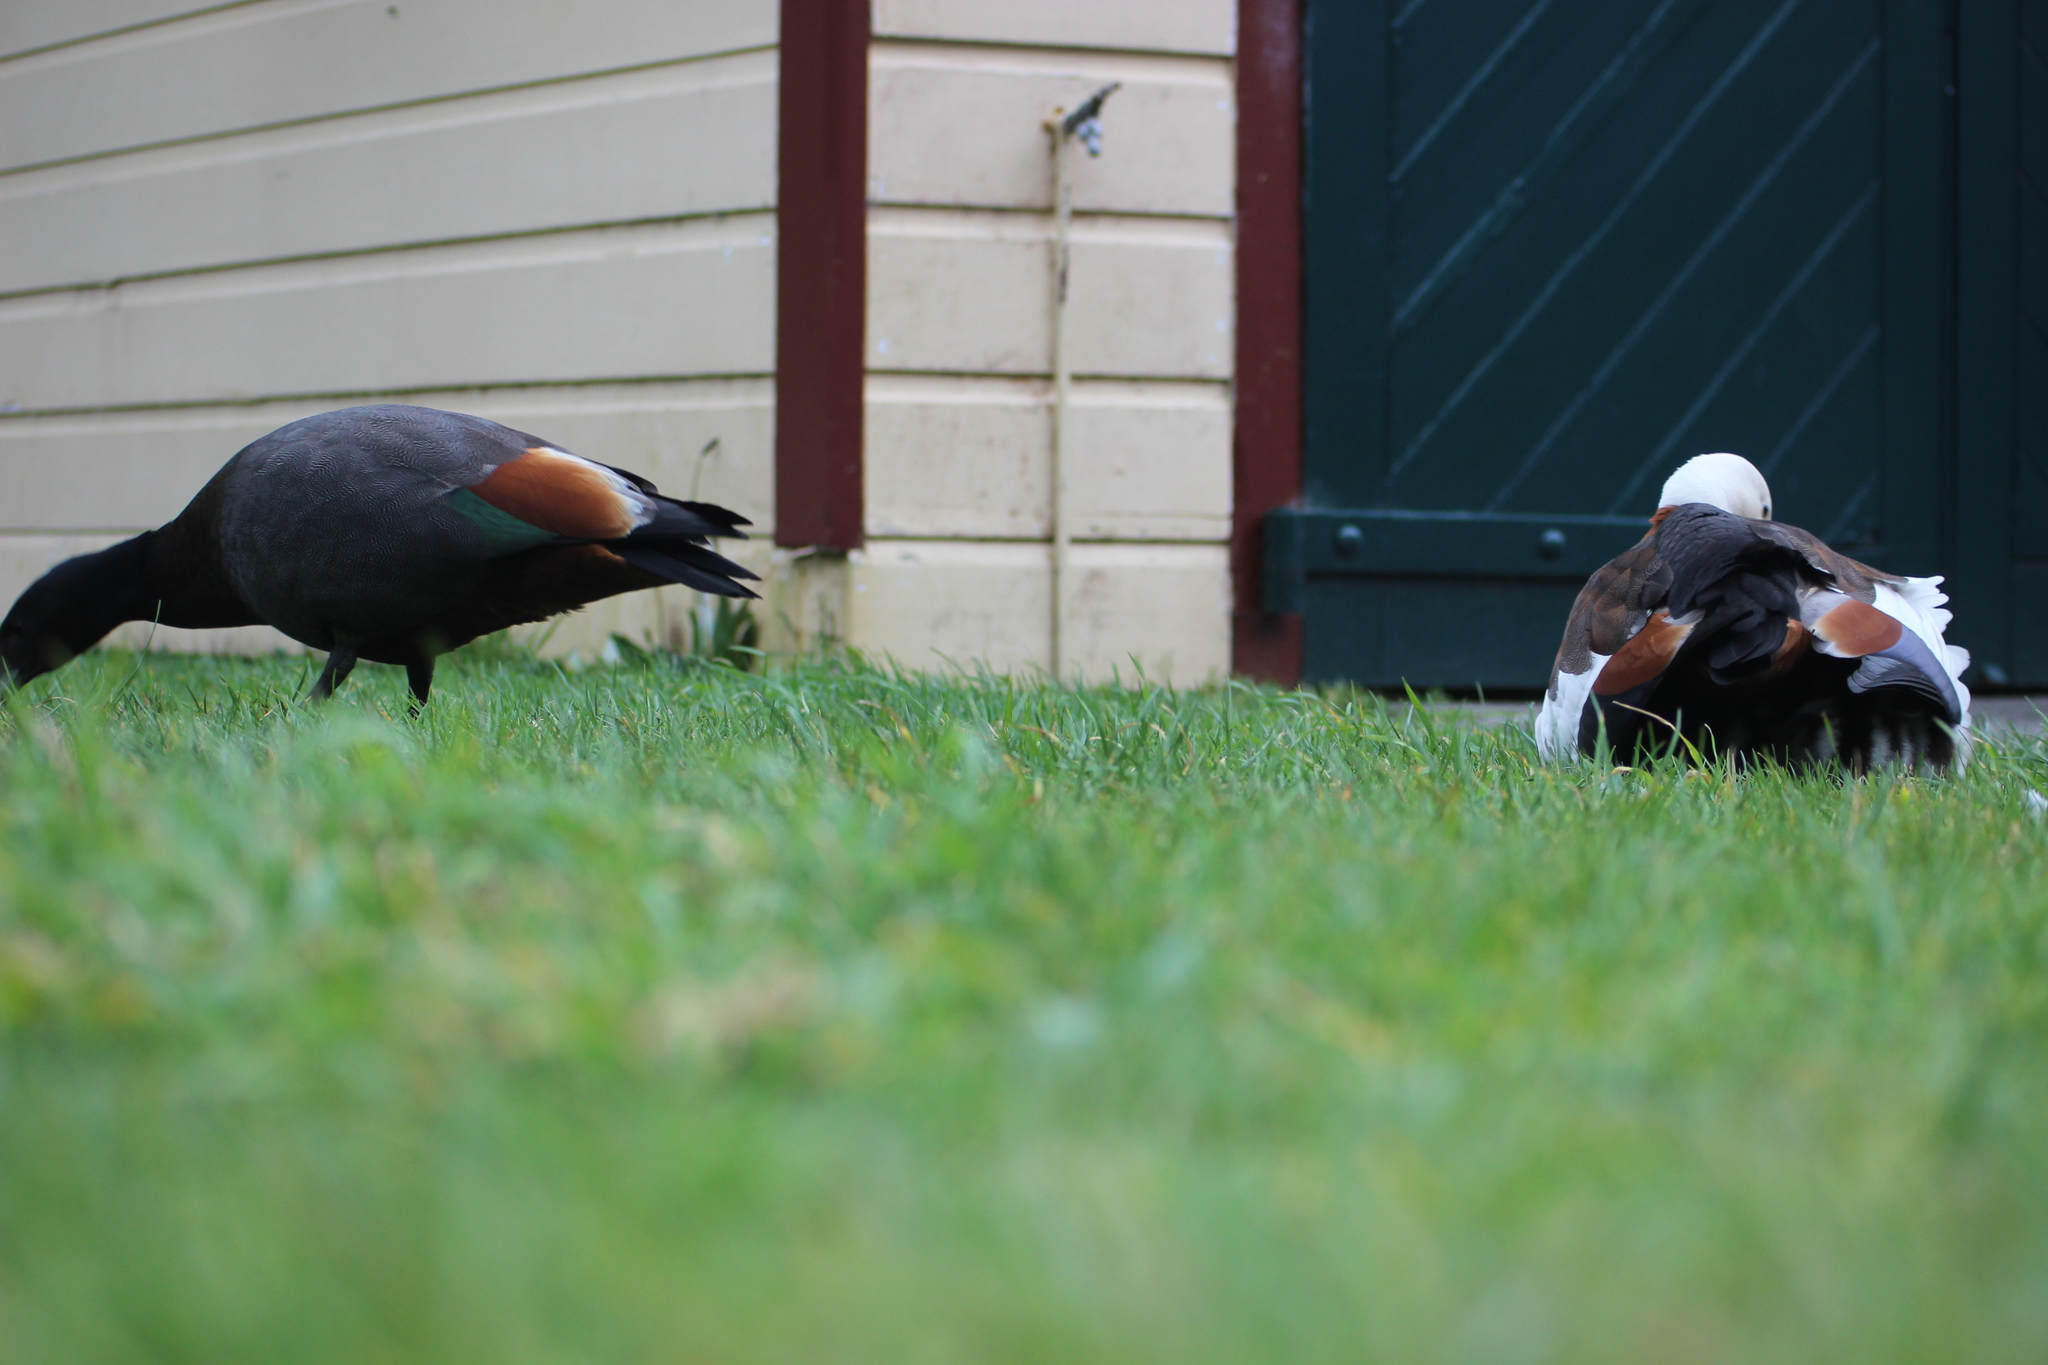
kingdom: Animalia
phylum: Chordata
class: Aves
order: Anseriformes
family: Anatidae
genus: Tadorna
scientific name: Tadorna variegata
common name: Paradise shelduck
